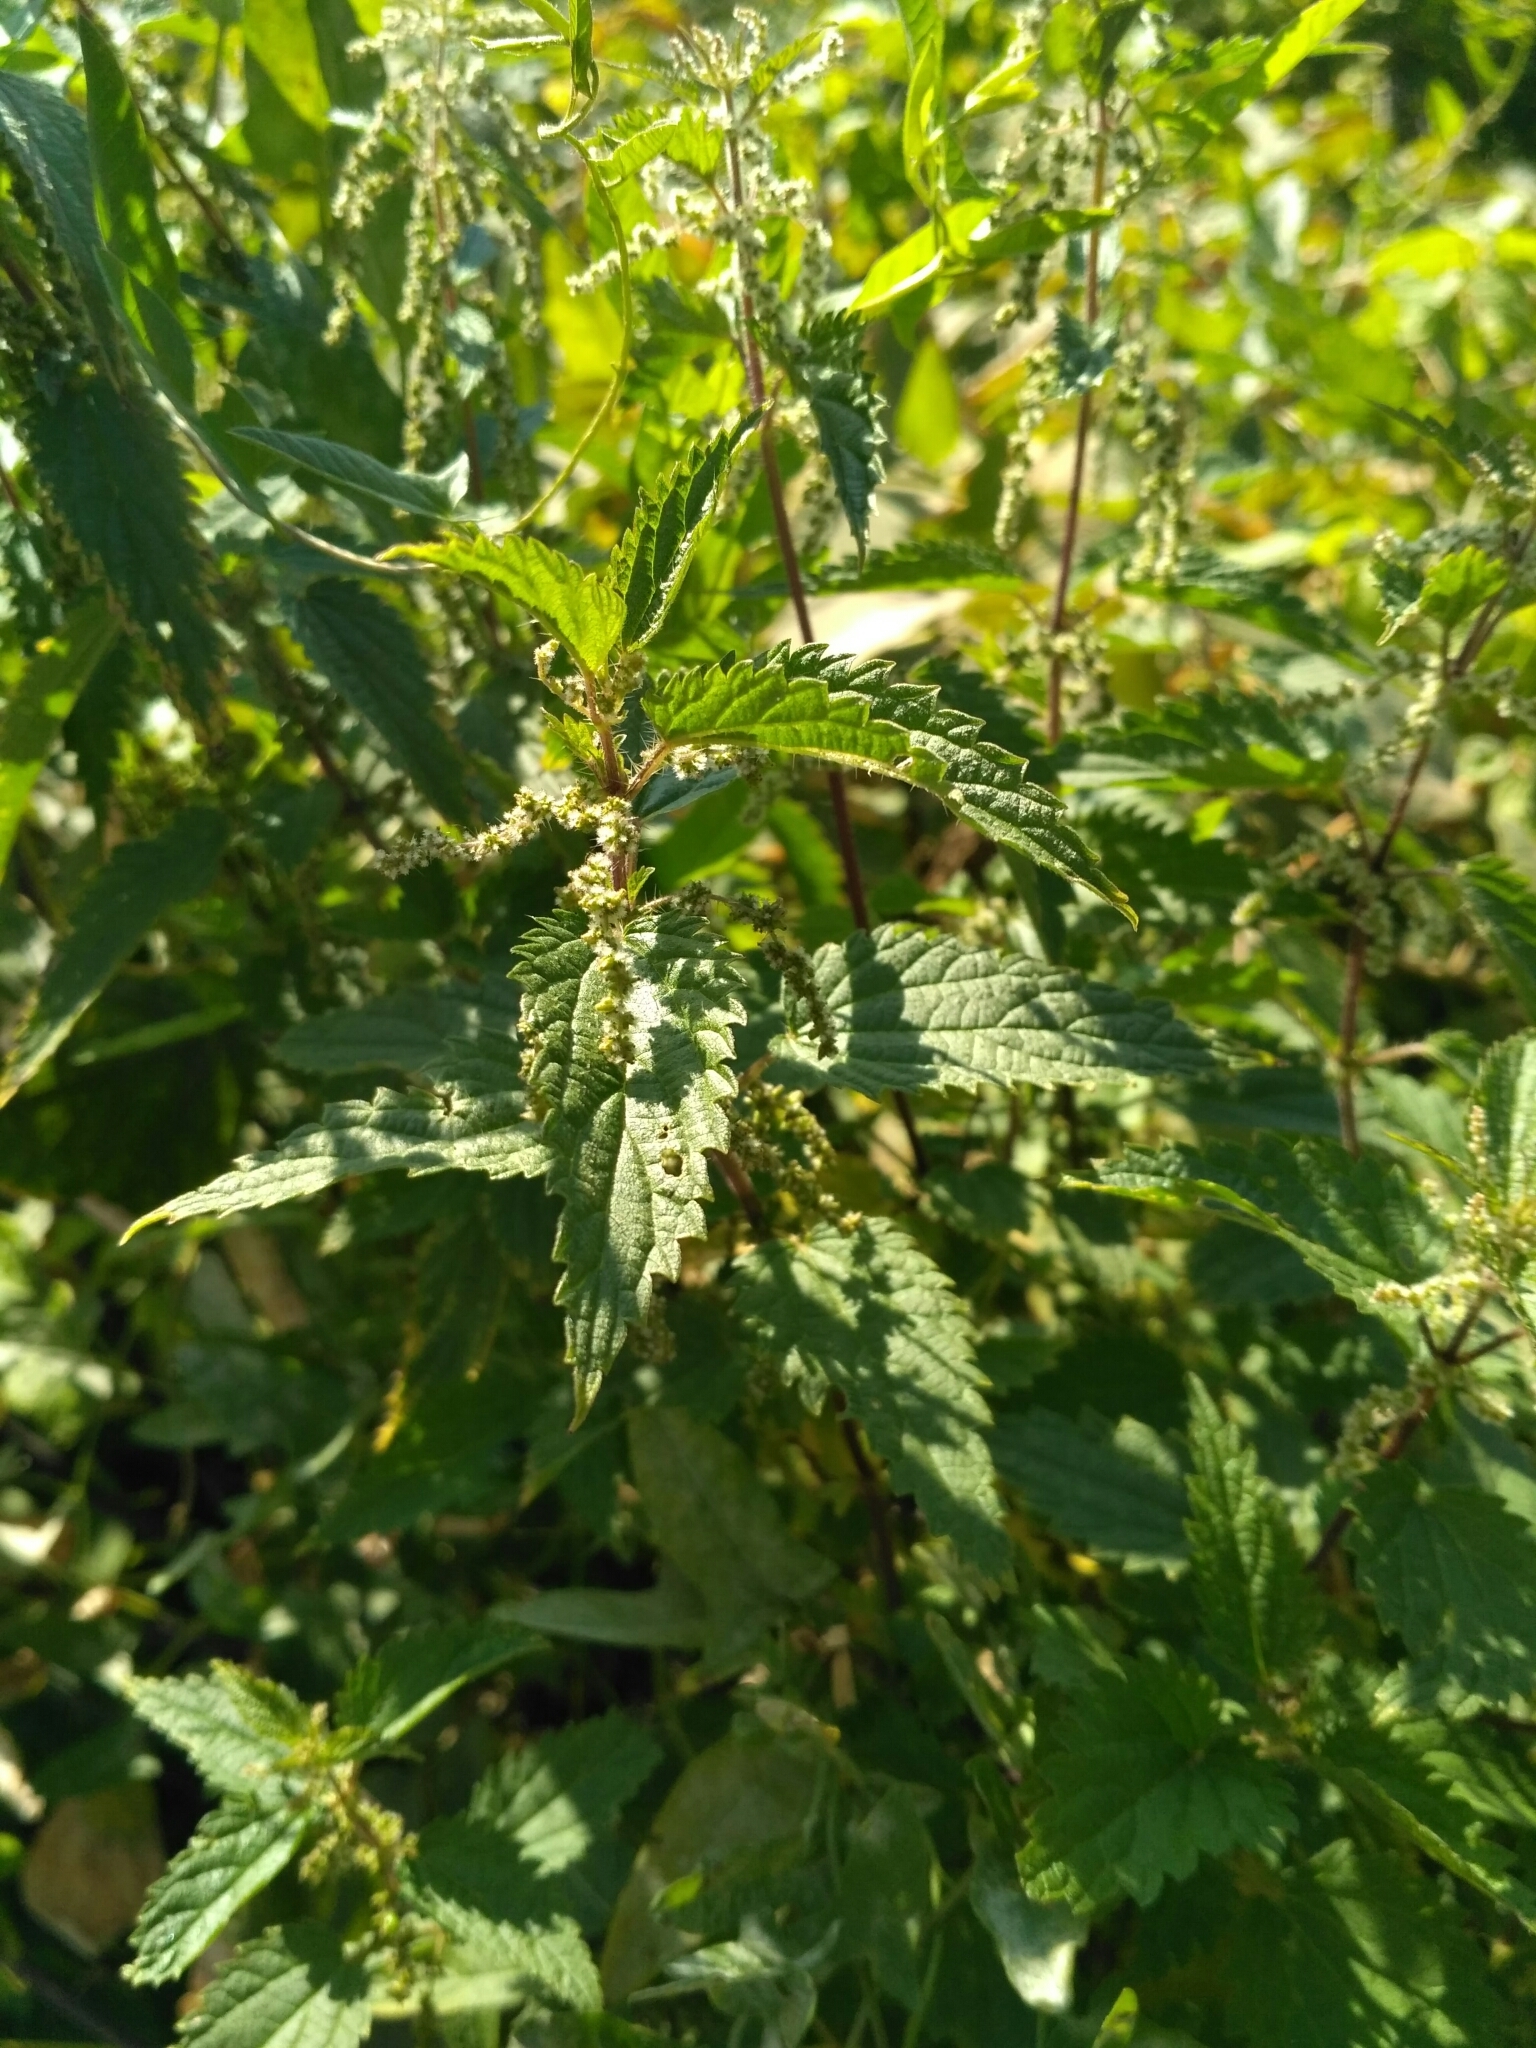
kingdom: Plantae
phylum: Tracheophyta
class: Magnoliopsida
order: Rosales
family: Urticaceae
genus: Urtica
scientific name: Urtica dioica
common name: Common nettle
